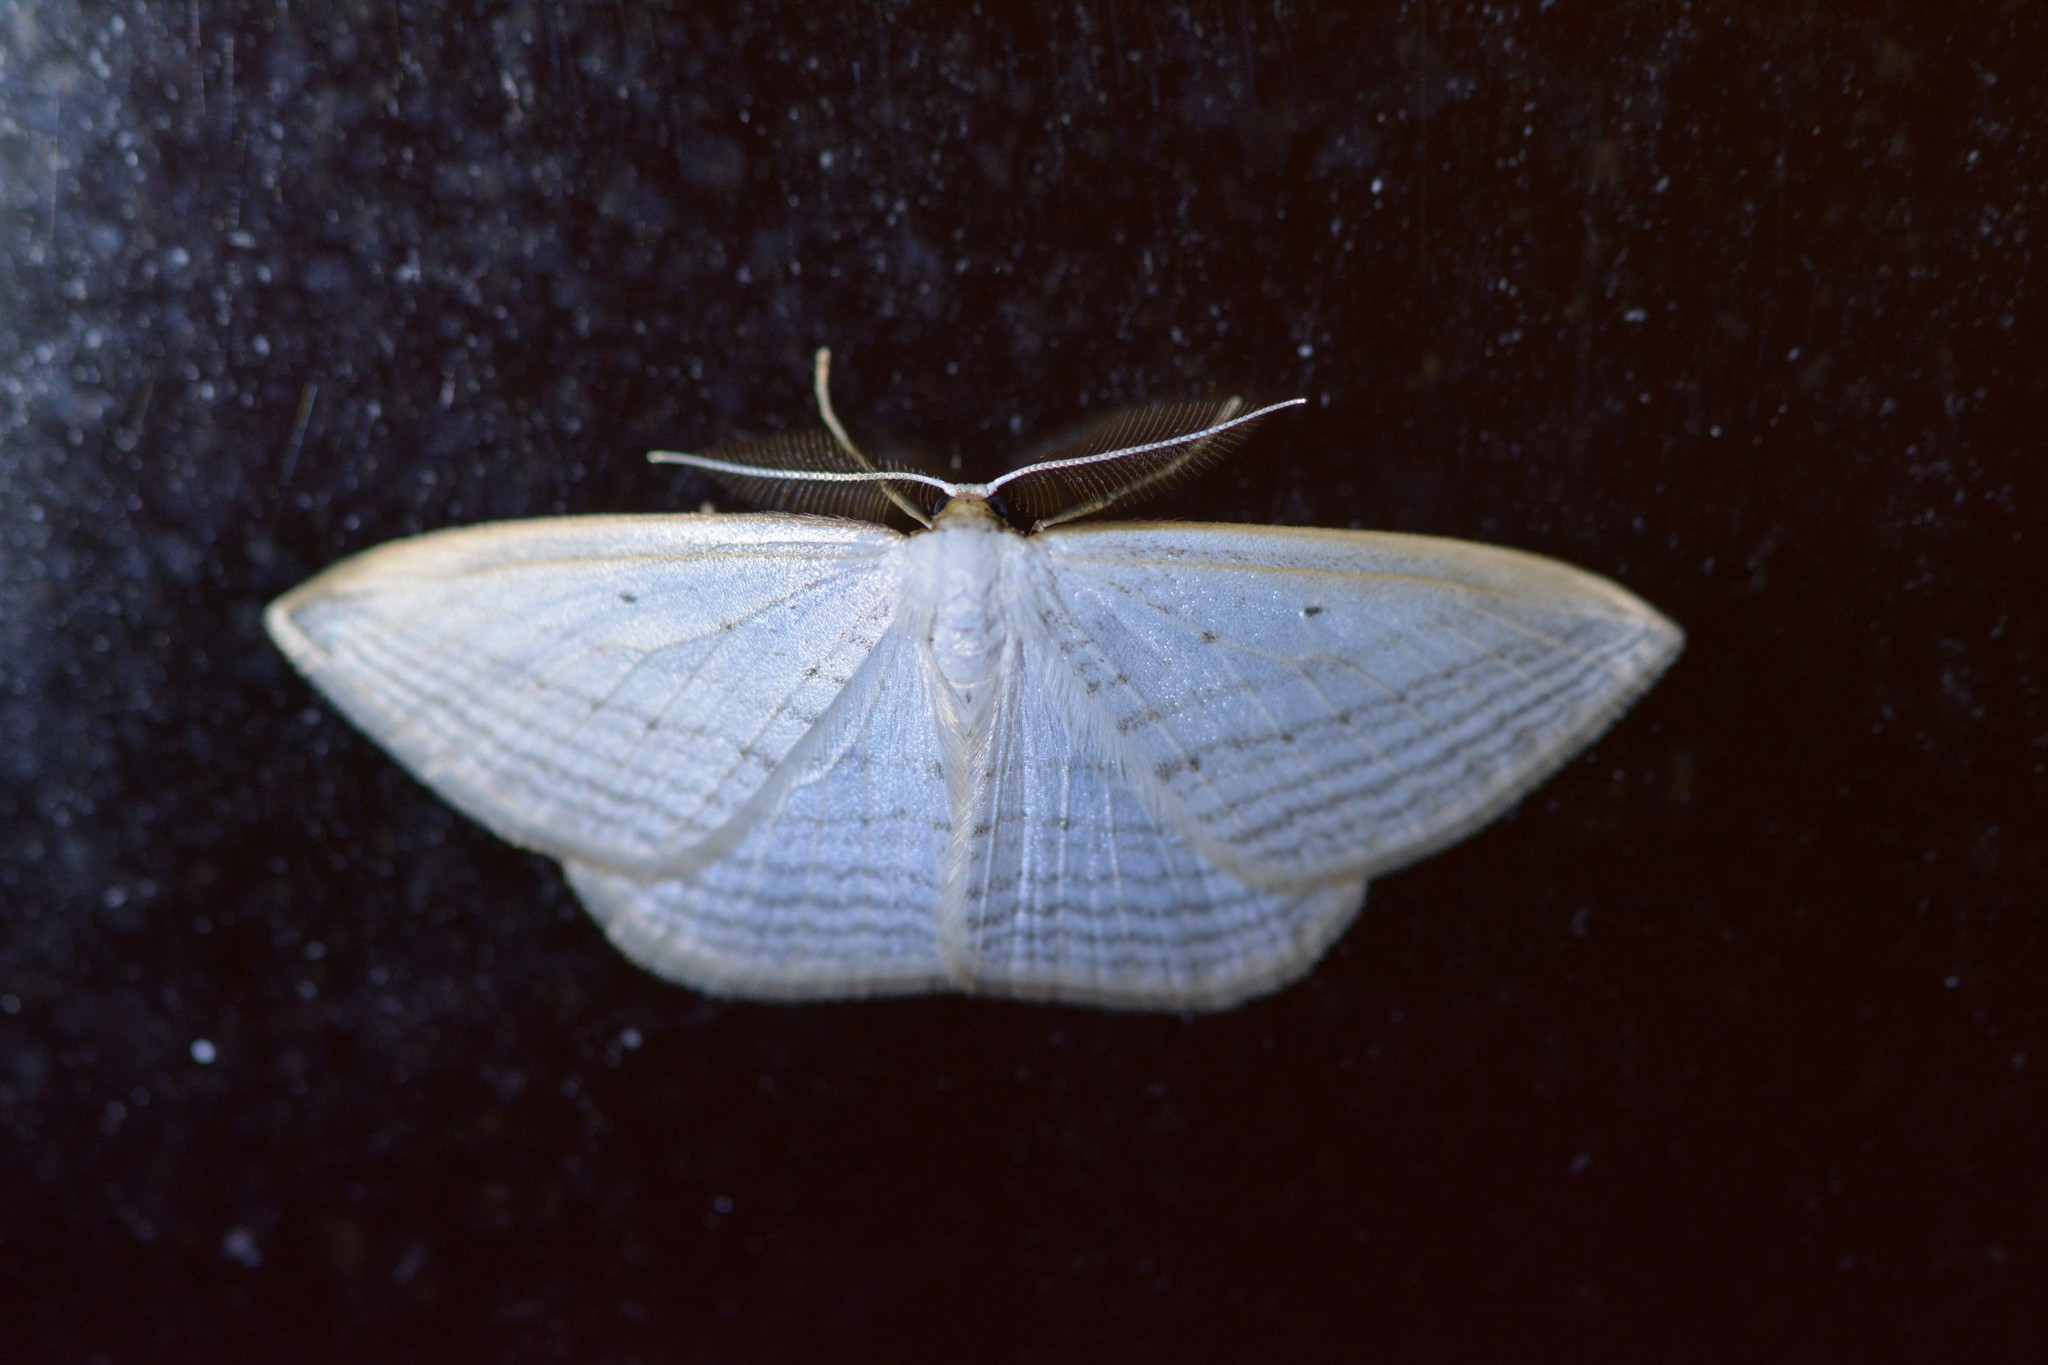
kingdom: Animalia
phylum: Arthropoda
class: Insecta
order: Lepidoptera
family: Geometridae
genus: Orthoclydon
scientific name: Orthoclydon praefectata
